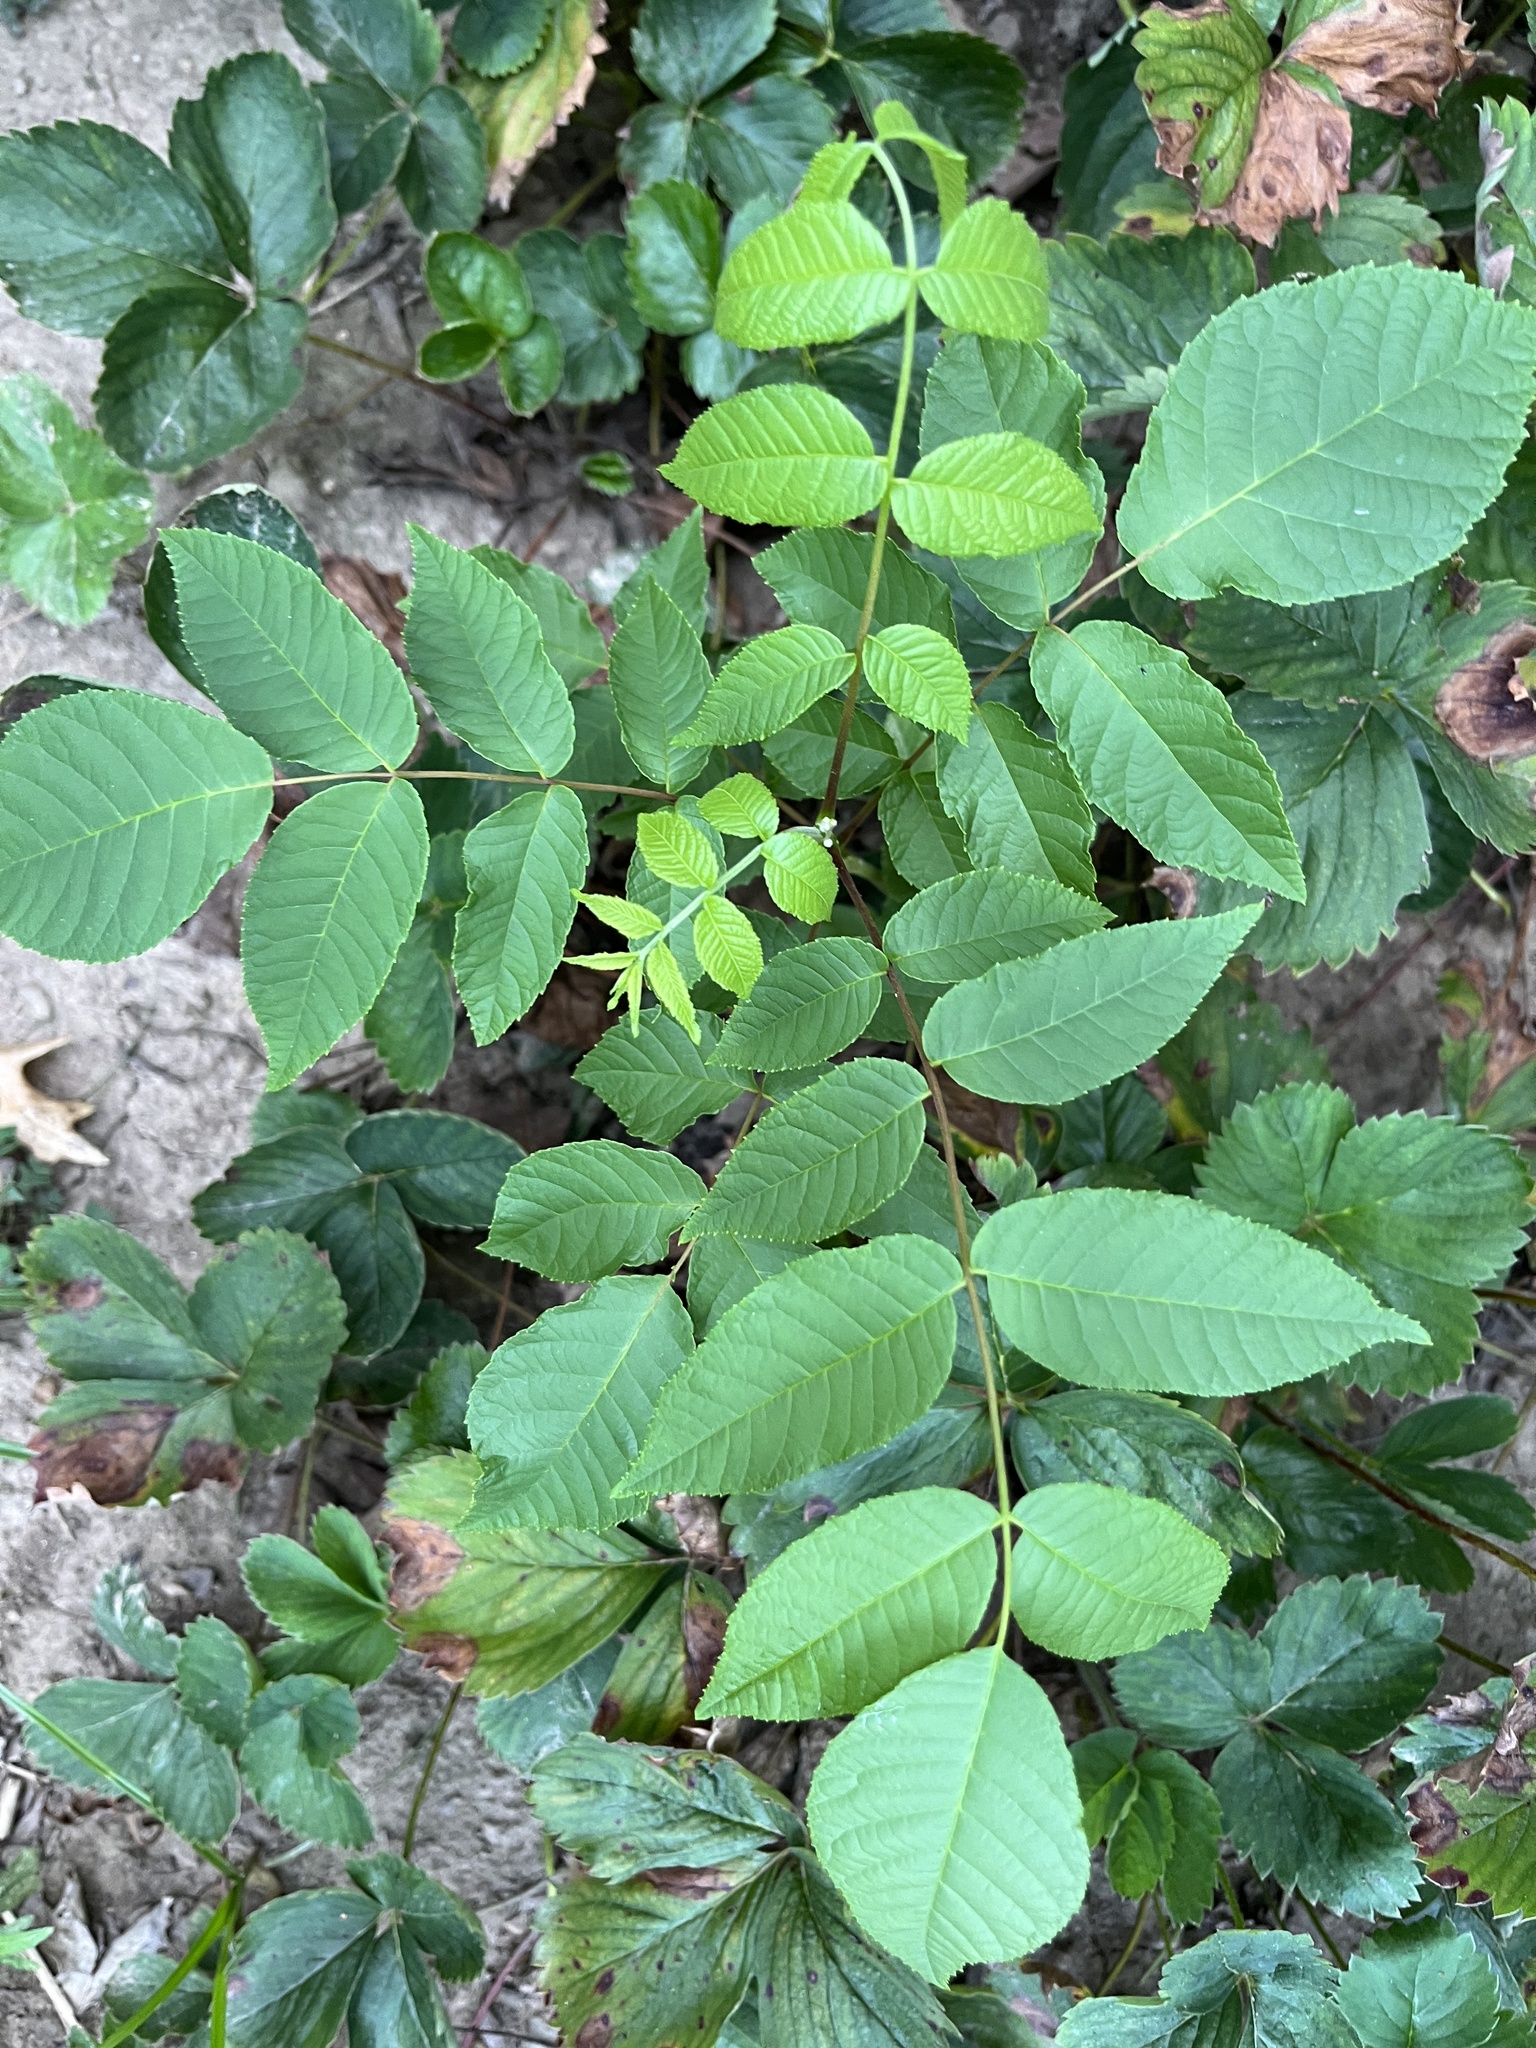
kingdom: Plantae
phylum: Tracheophyta
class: Magnoliopsida
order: Fagales
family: Juglandaceae
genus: Juglans
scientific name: Juglans nigra
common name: Black walnut
